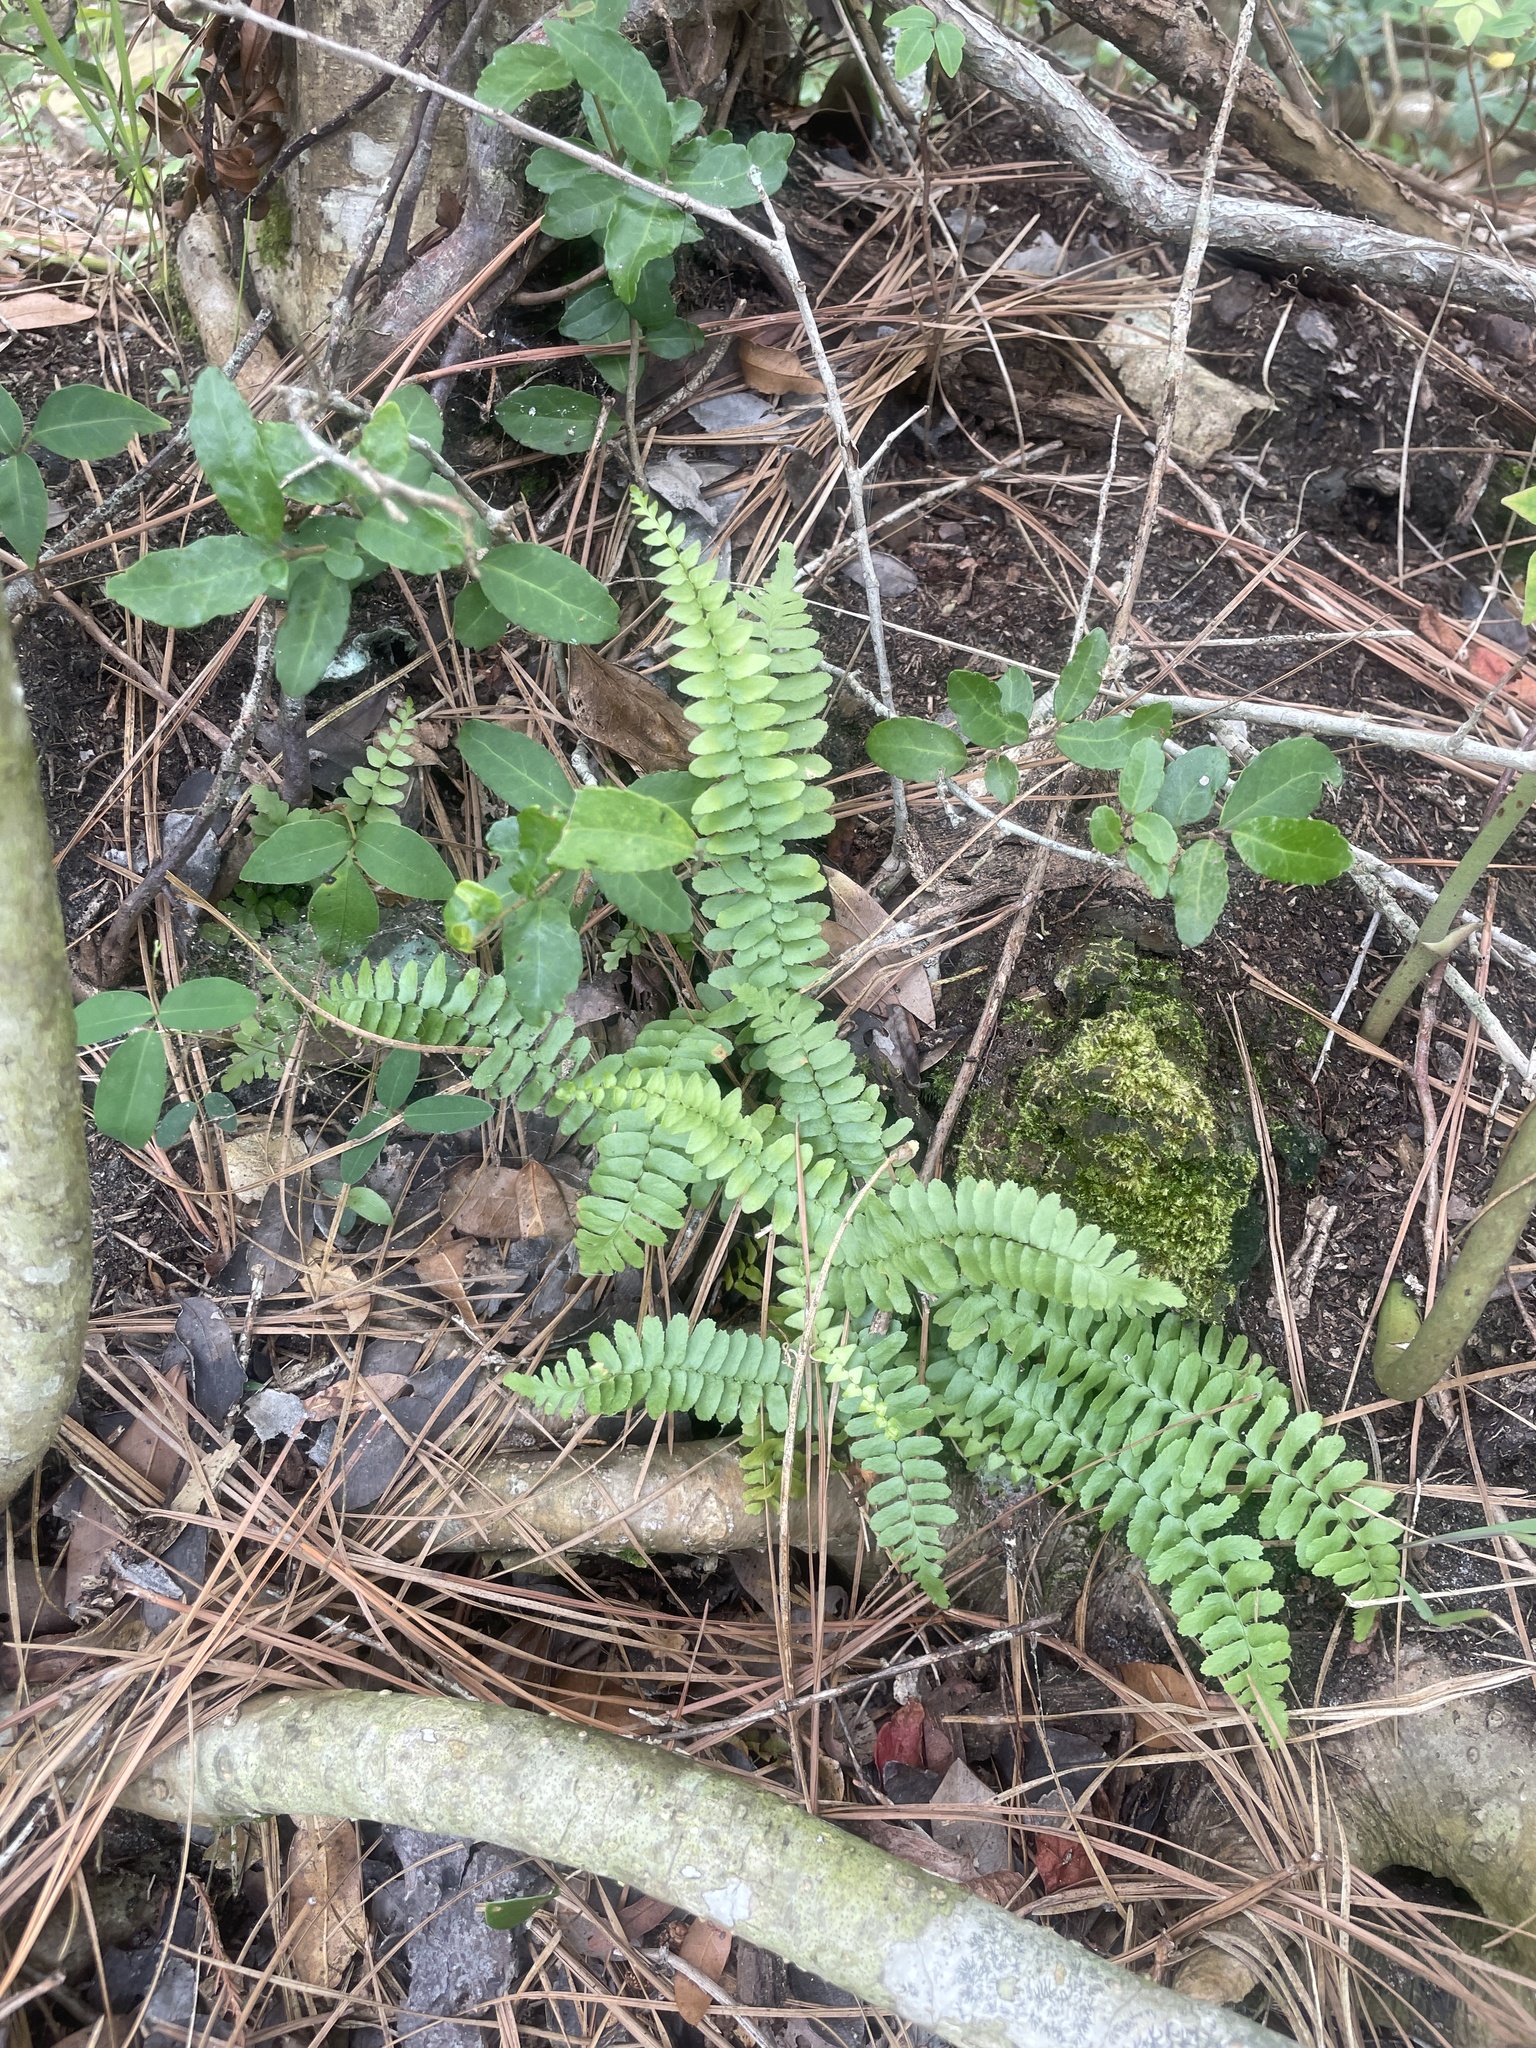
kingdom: Plantae
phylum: Tracheophyta
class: Polypodiopsida
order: Polypodiales
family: Aspleniaceae
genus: Asplenium
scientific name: Asplenium platyneuron
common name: Ebony spleenwort
